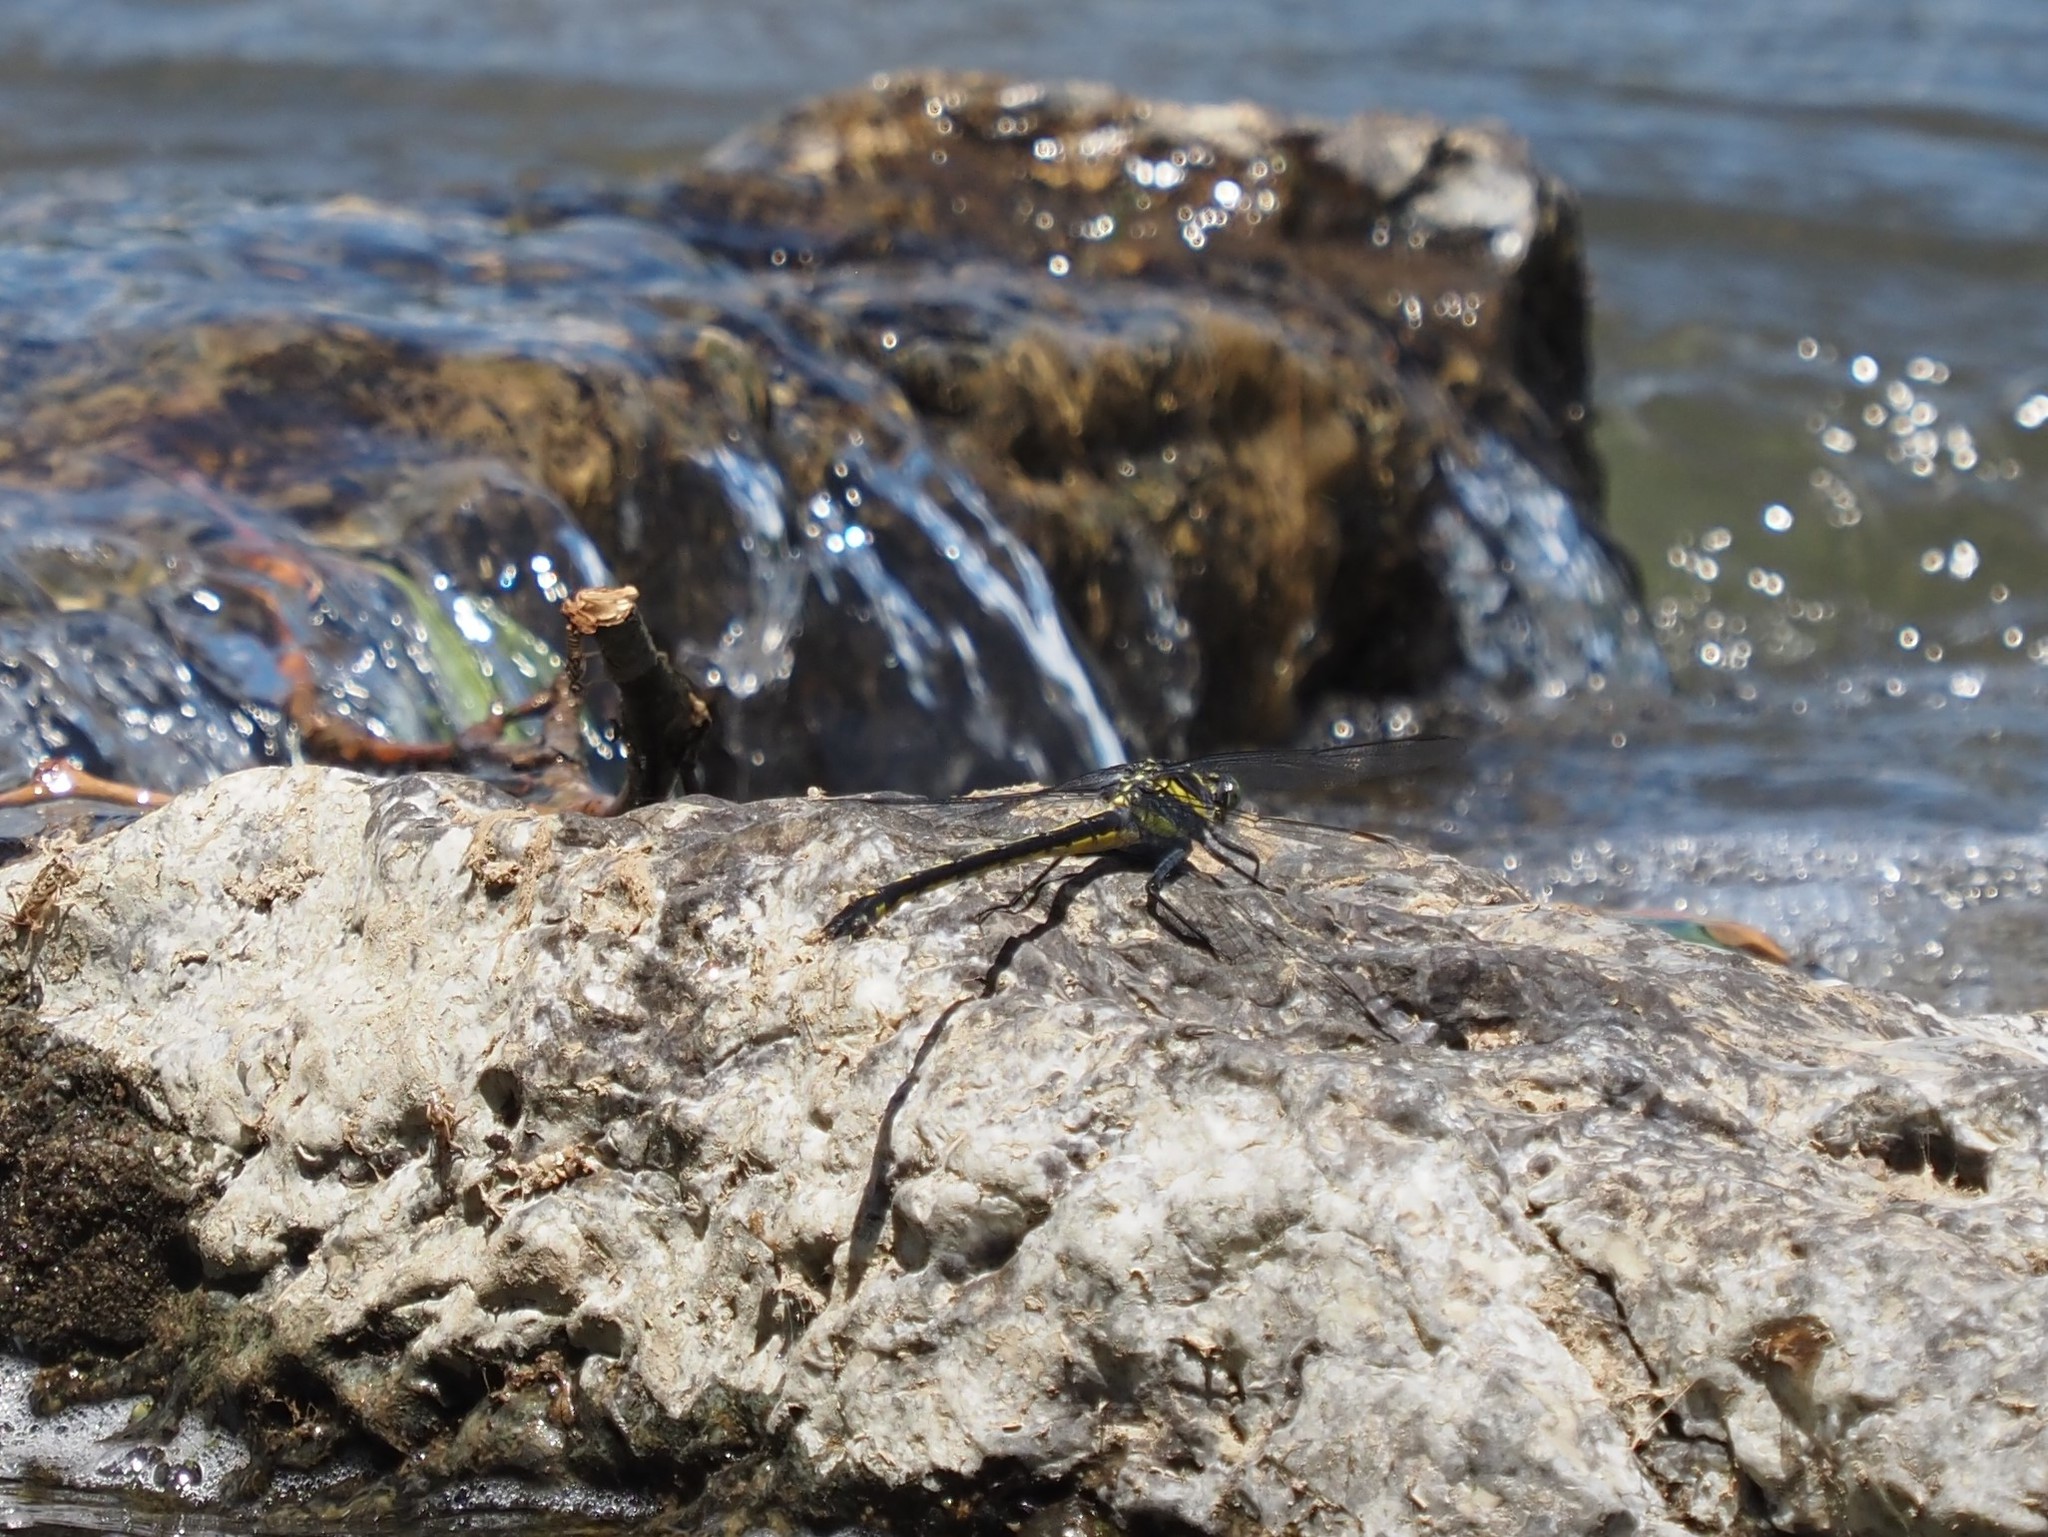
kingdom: Animalia
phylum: Arthropoda
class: Insecta
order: Odonata
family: Gomphidae
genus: Hagenius
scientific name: Hagenius brevistylus
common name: Dragonhunter
